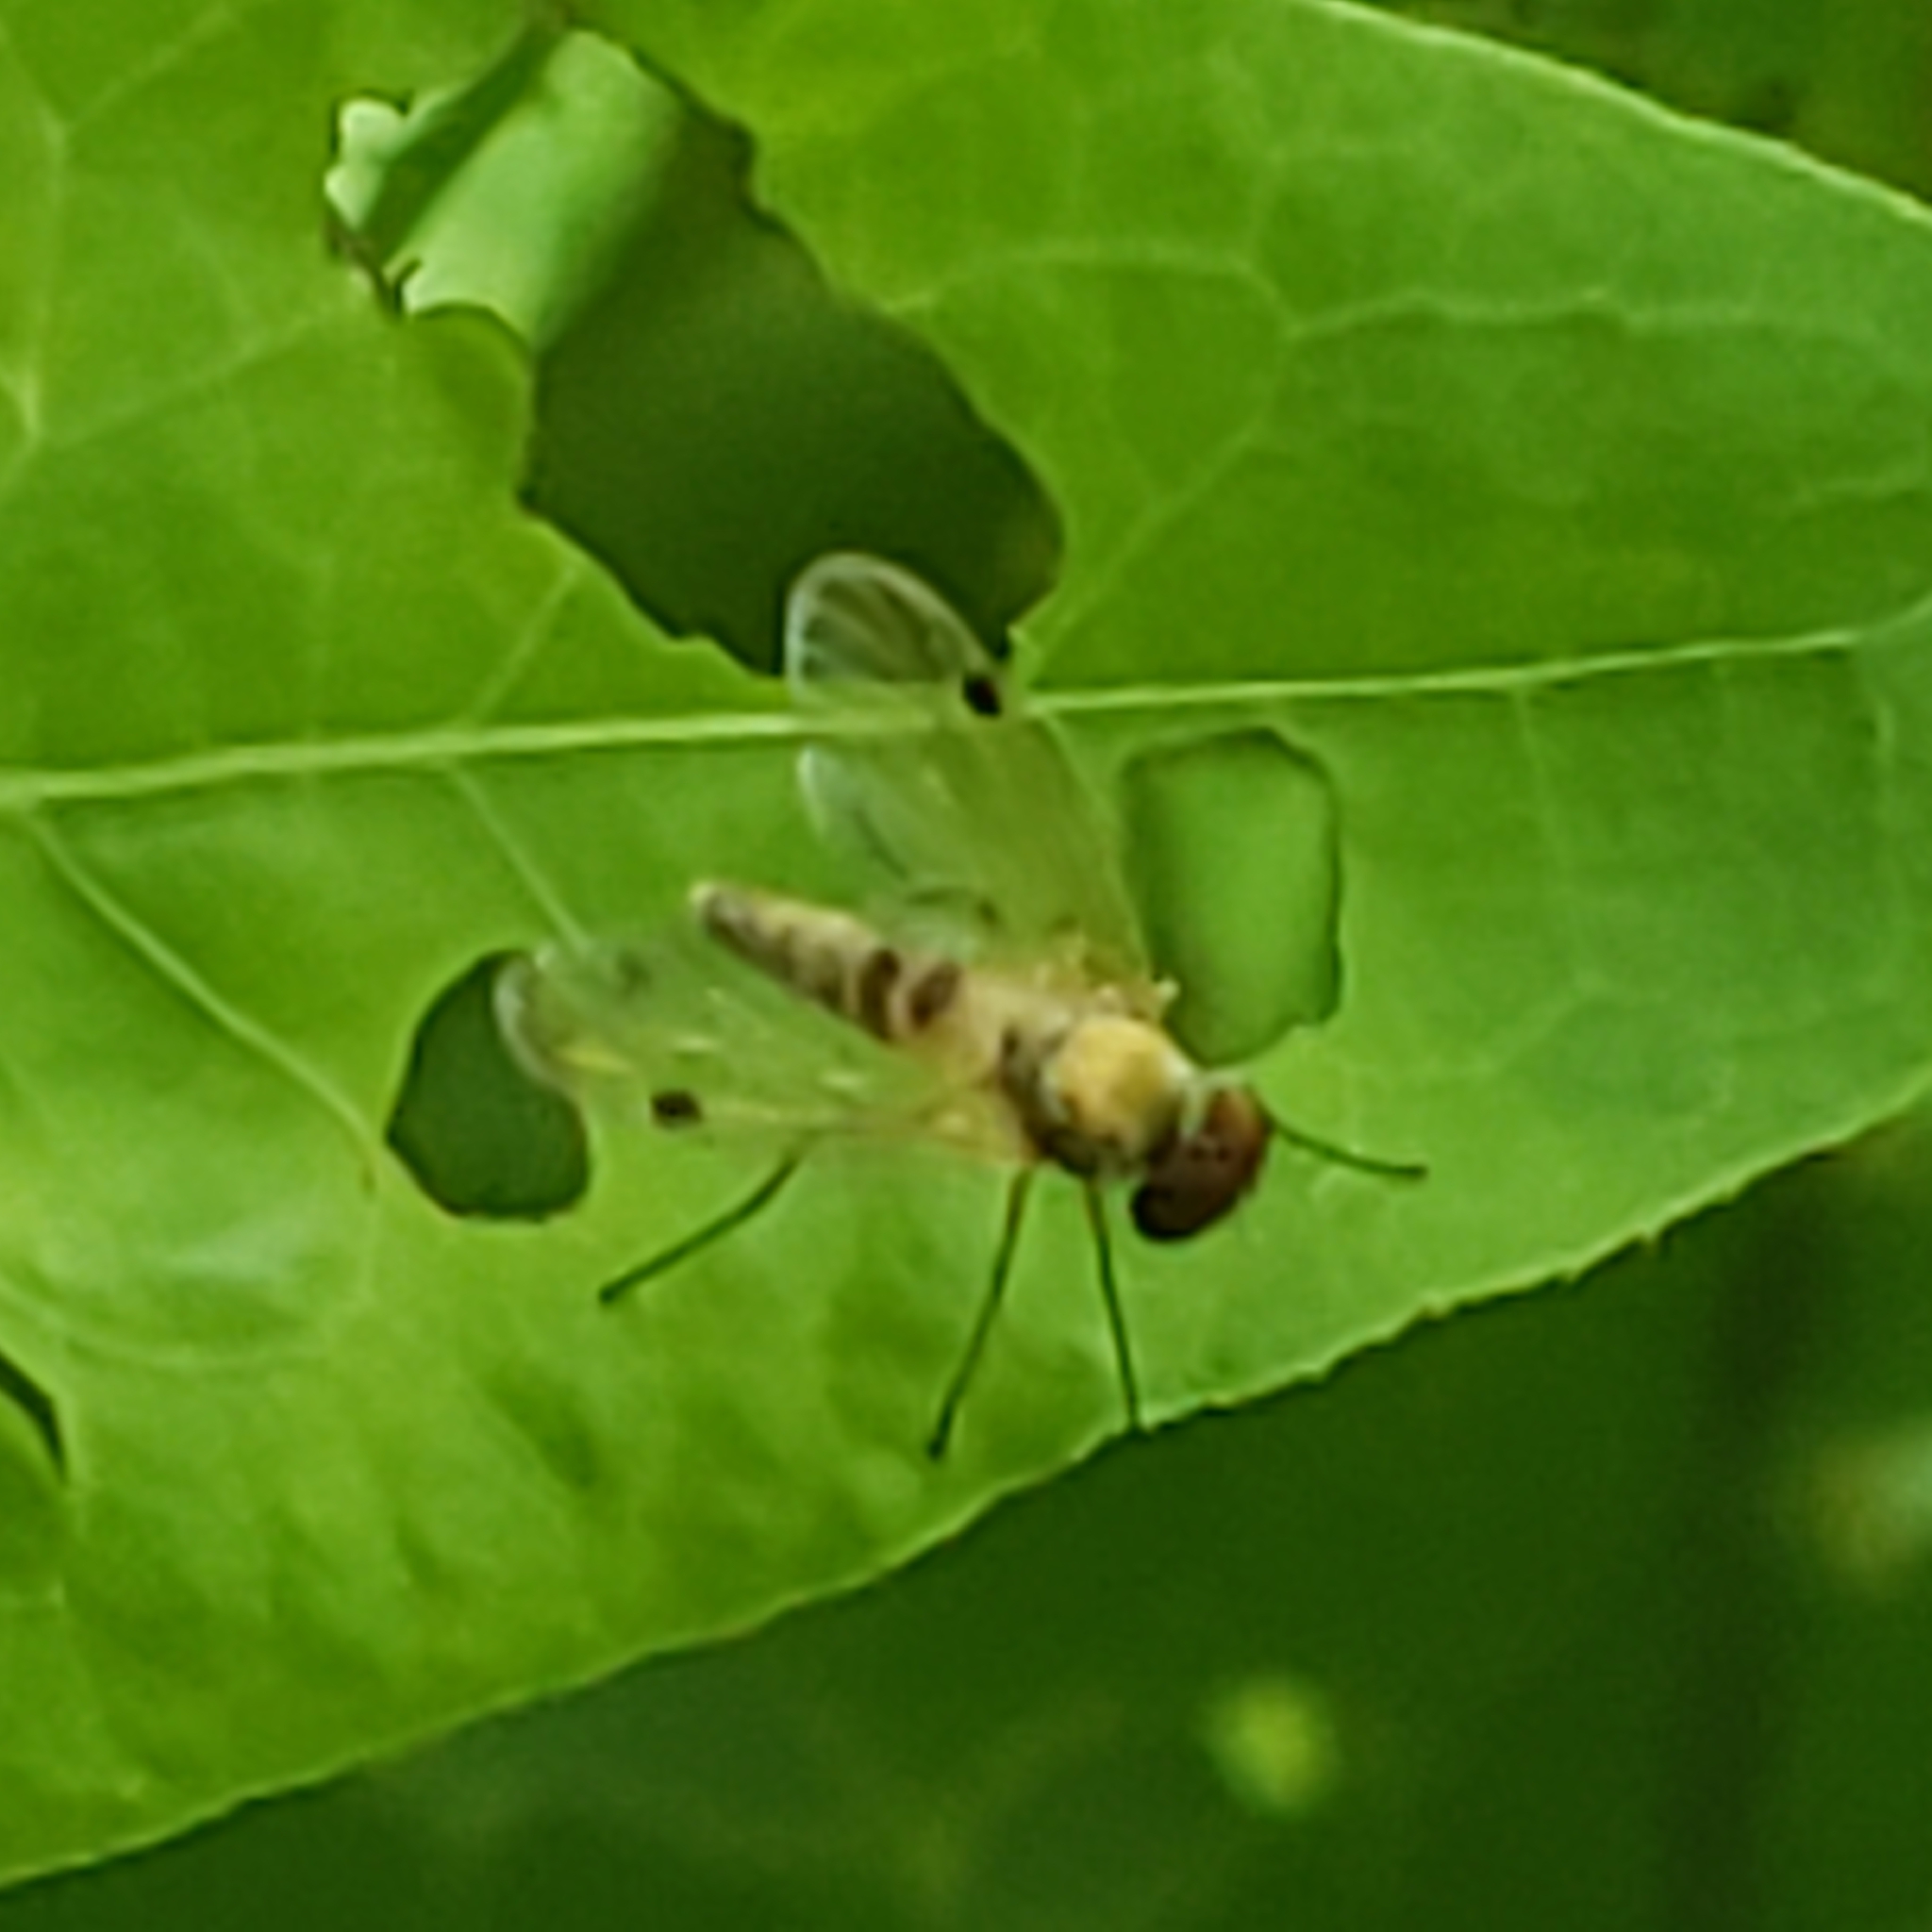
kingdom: Animalia
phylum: Arthropoda
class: Insecta
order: Diptera
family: Rhagionidae
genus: Chrysopilus
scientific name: Chrysopilus modestus
